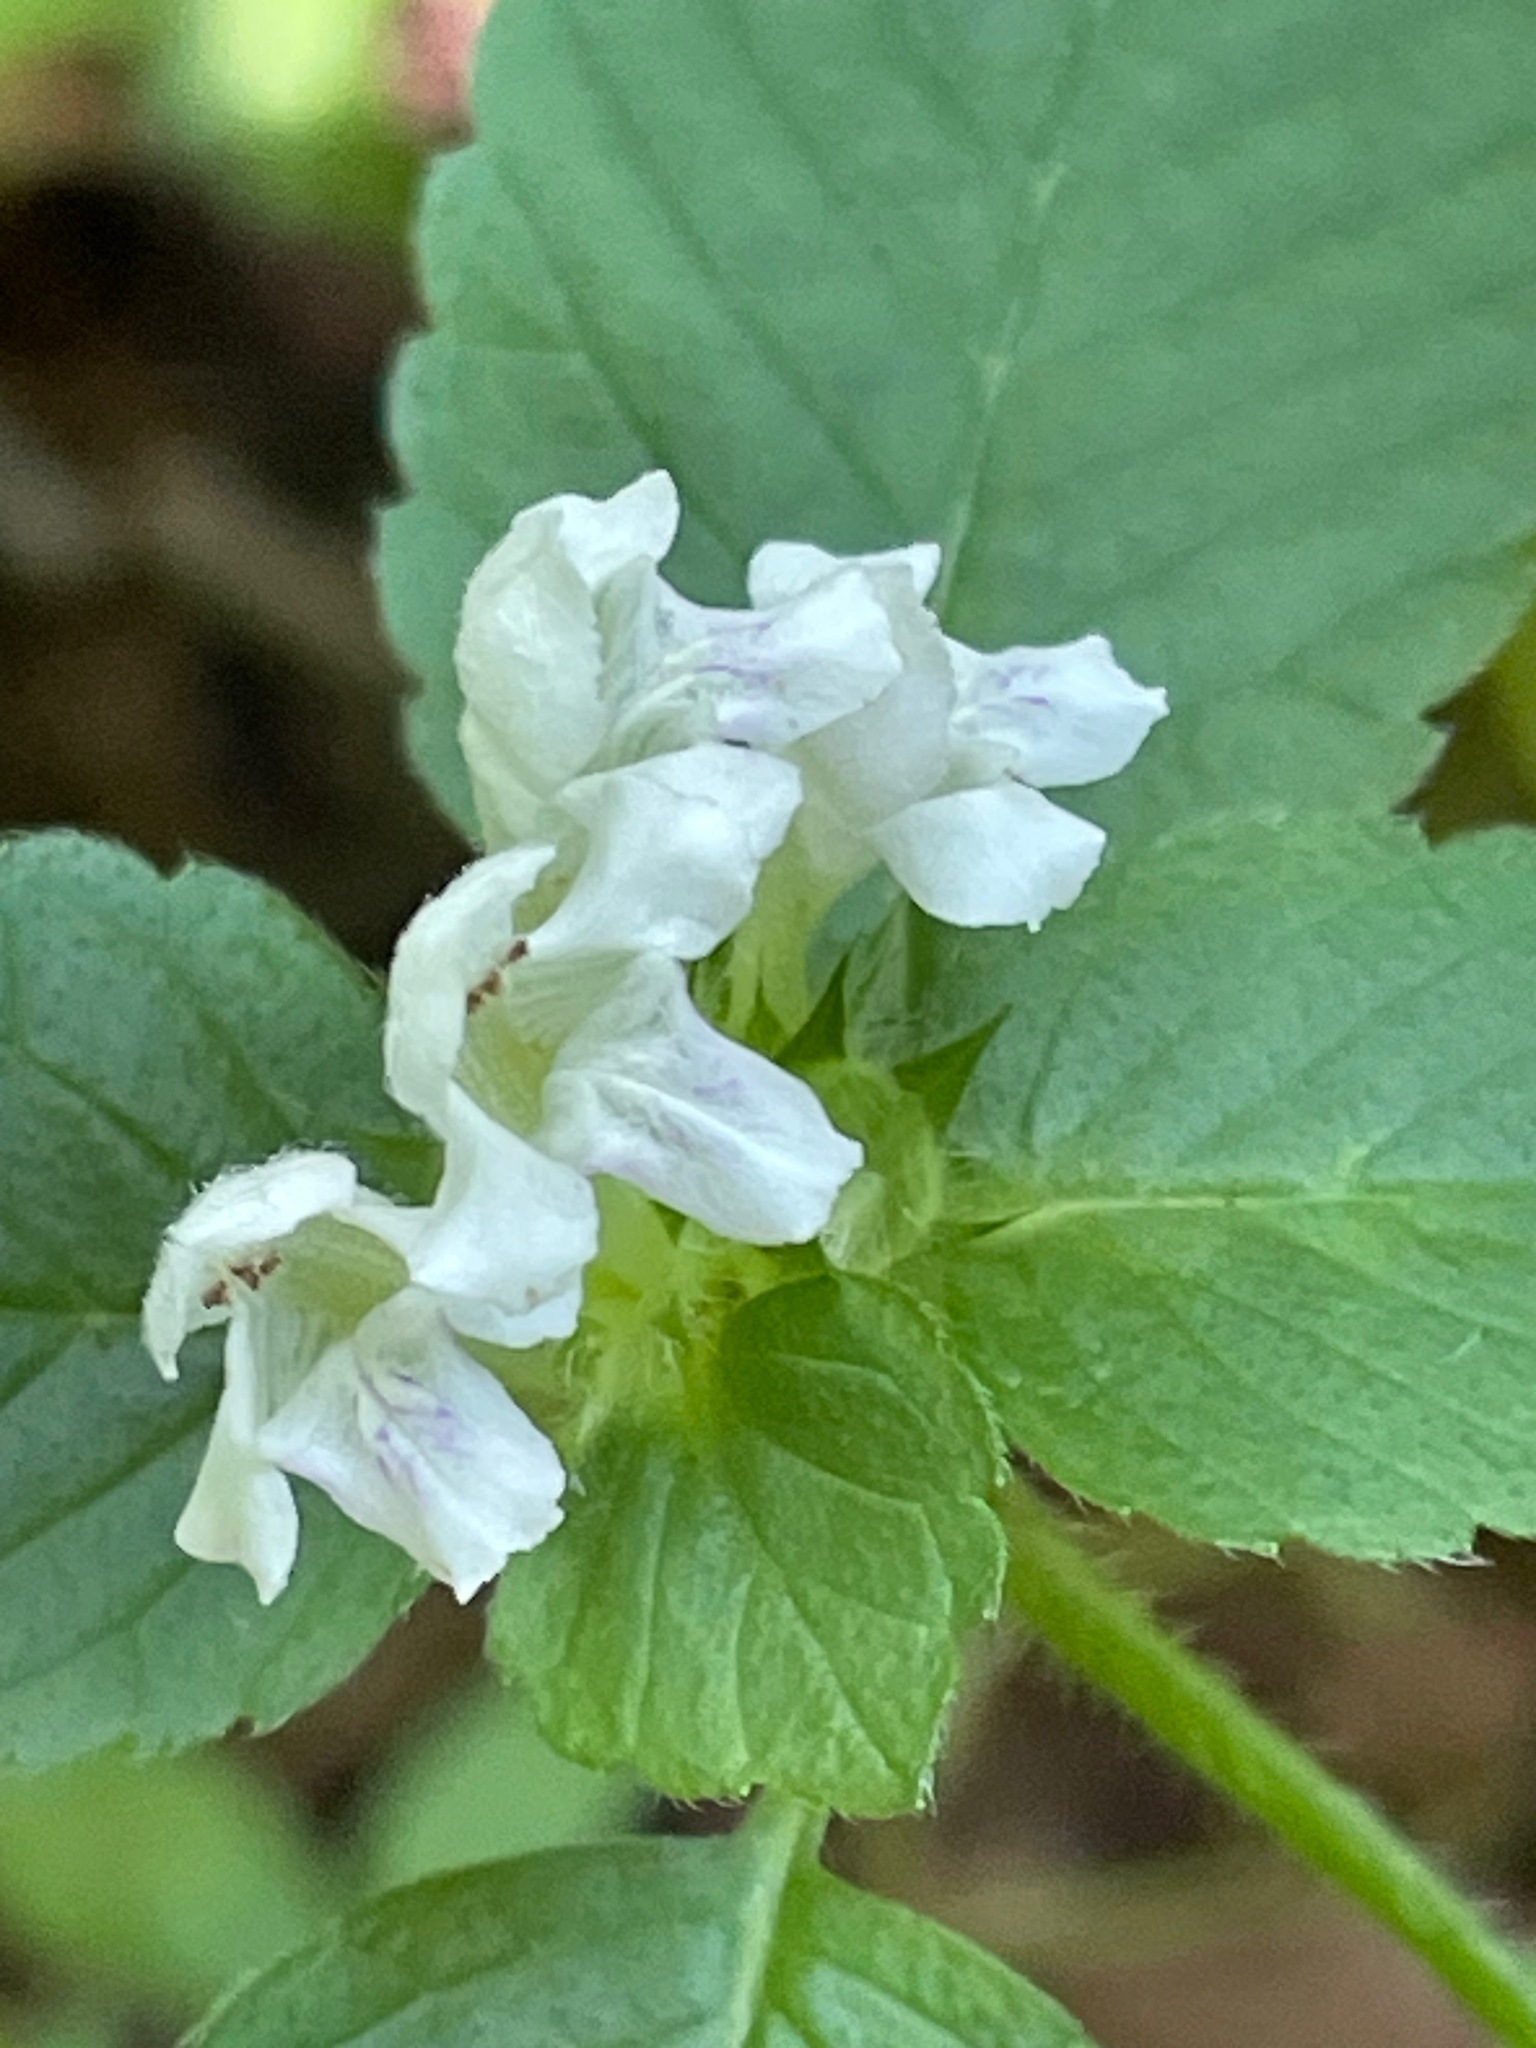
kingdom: Plantae
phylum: Tracheophyta
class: Magnoliopsida
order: Lamiales
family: Lamiaceae
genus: Galeopsis
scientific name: Galeopsis tetrahit
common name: Common hemp-nettle
